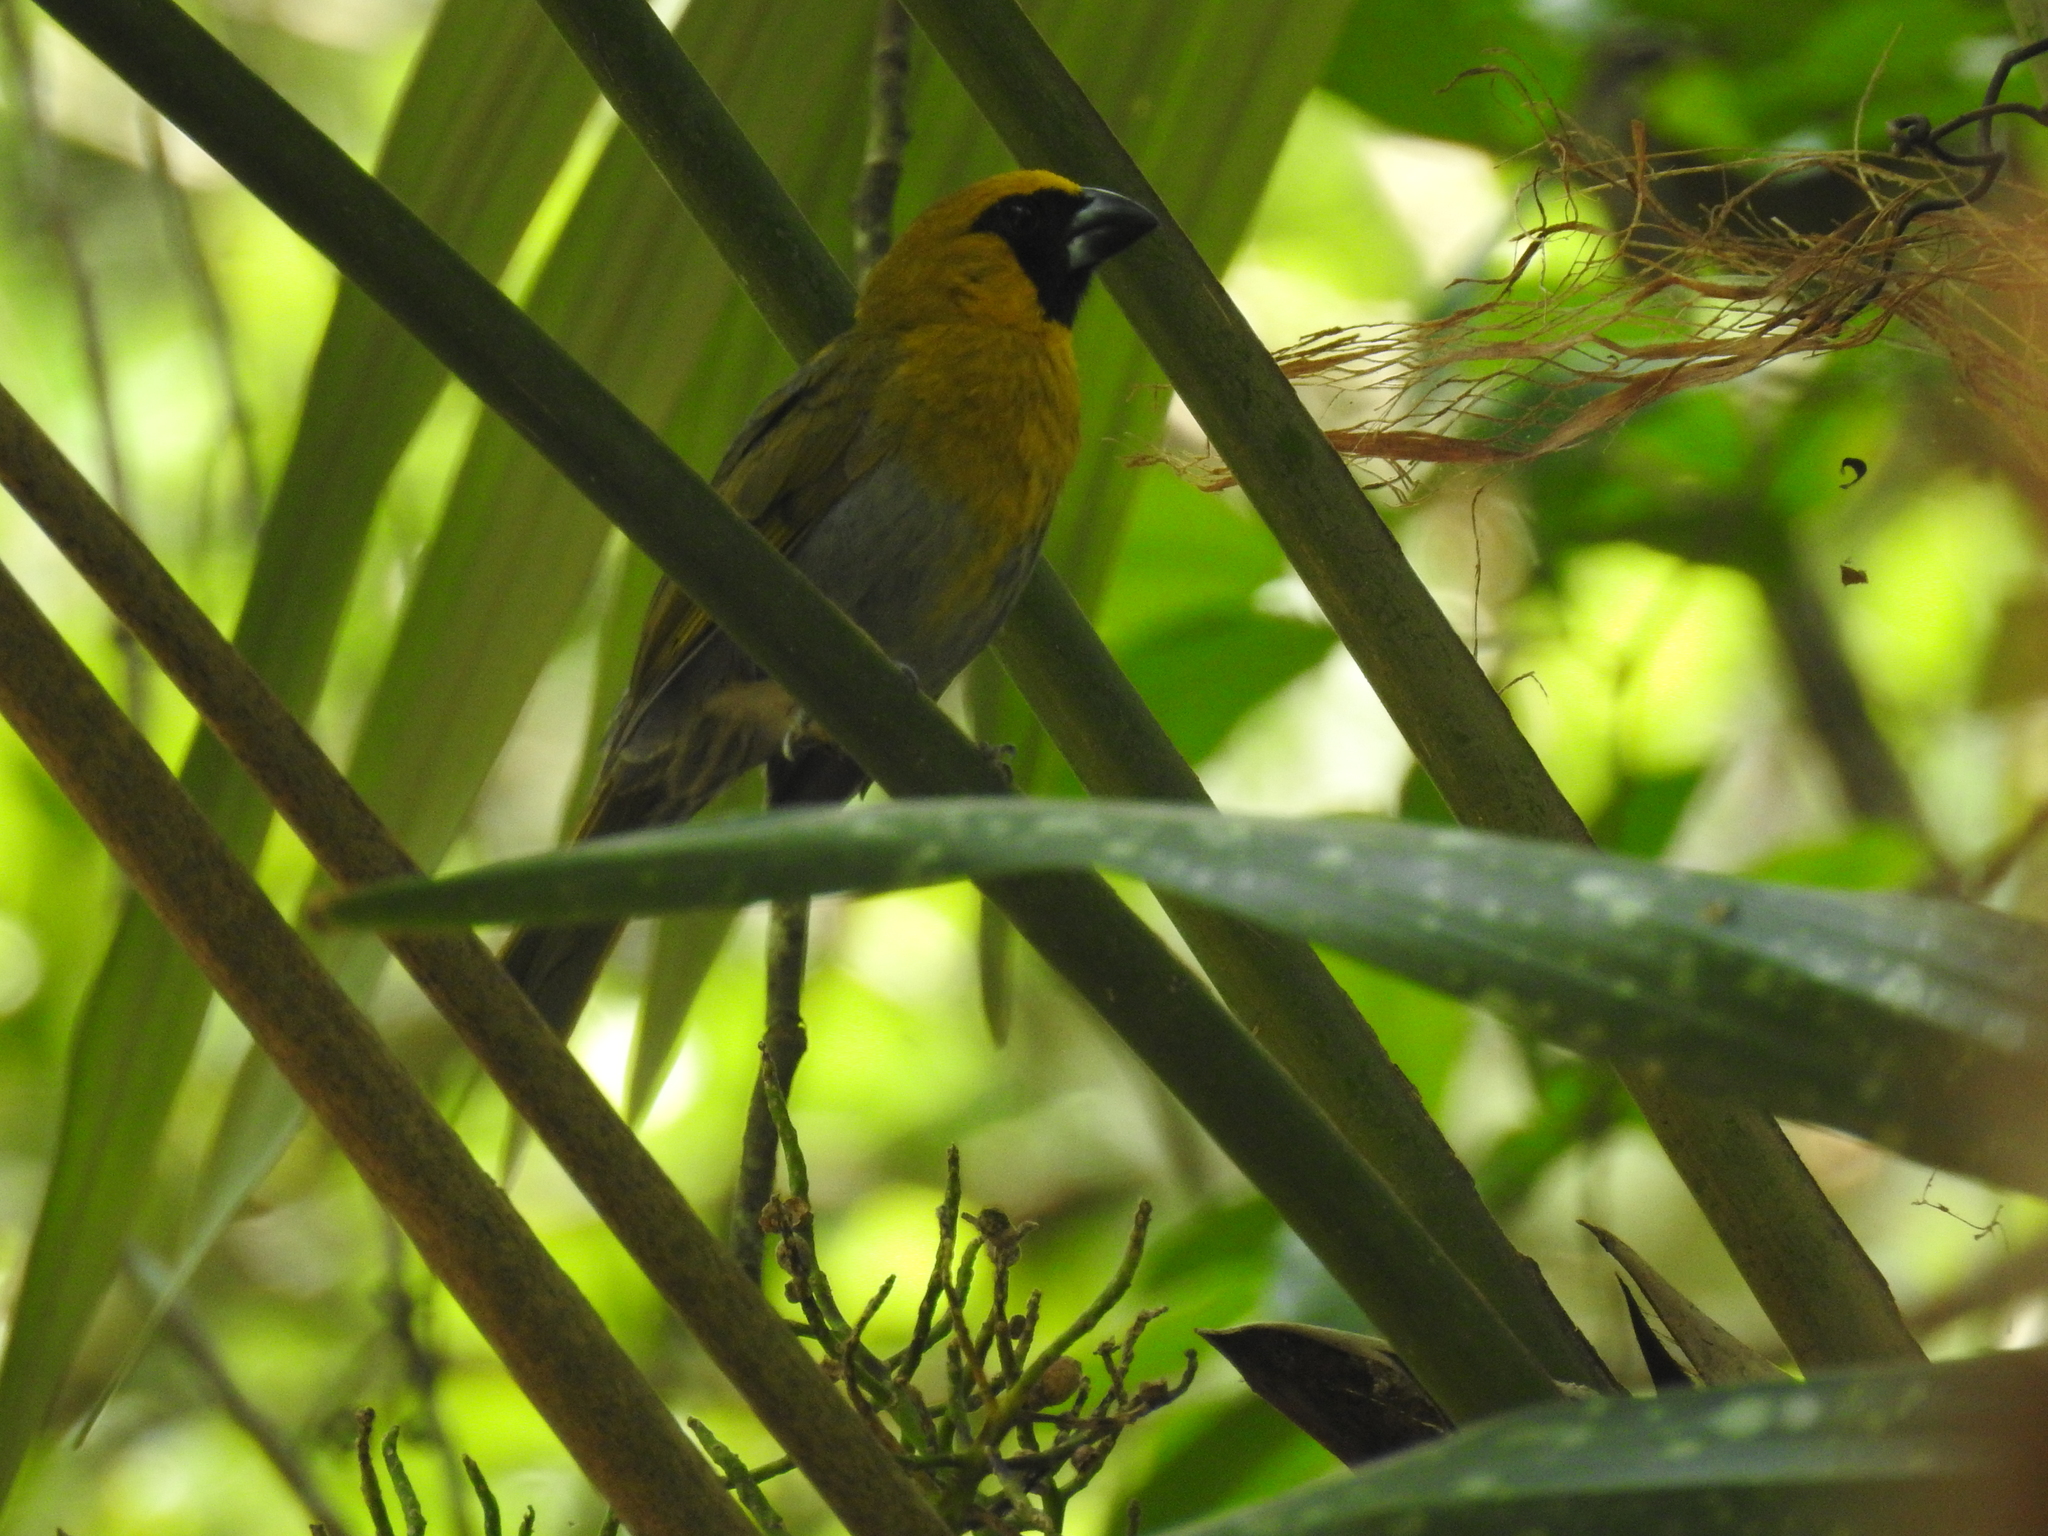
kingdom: Animalia
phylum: Chordata
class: Aves
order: Passeriformes
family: Cardinalidae
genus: Caryothraustes
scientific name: Caryothraustes poliogaster
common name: Black-faced grosbeak
